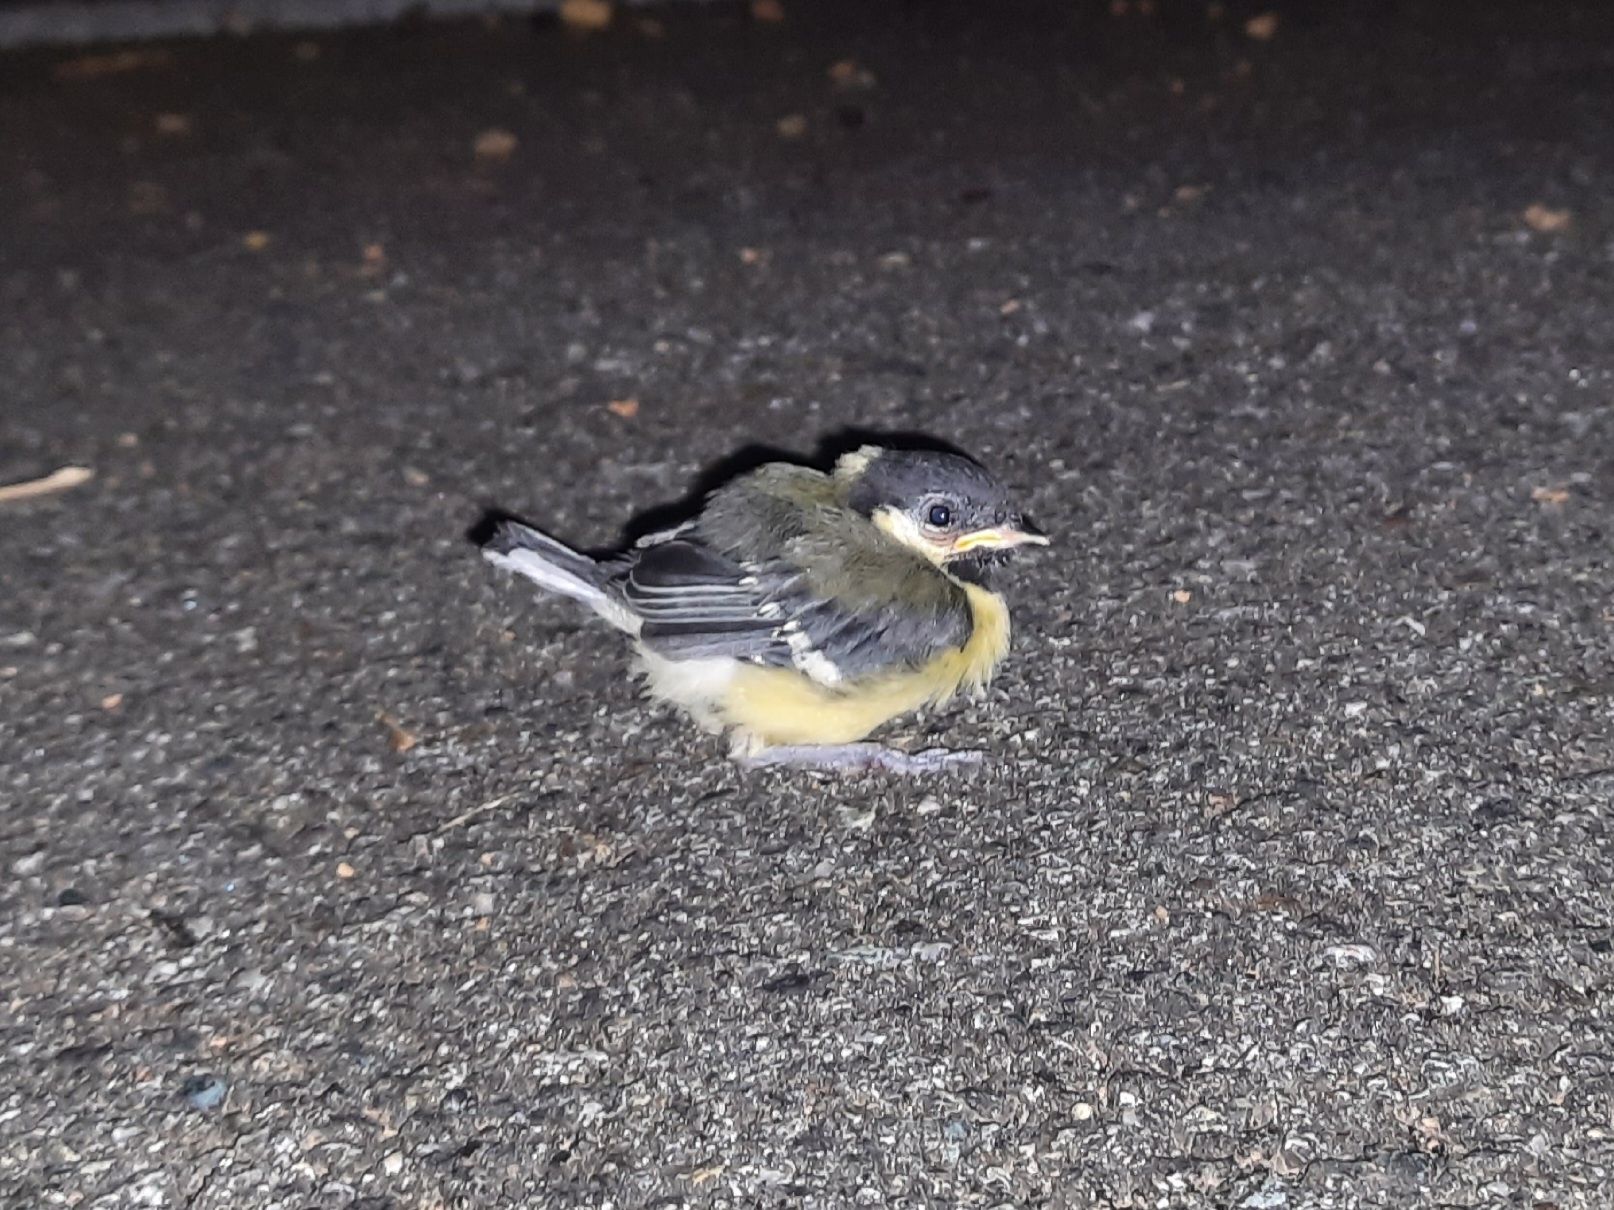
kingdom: Animalia
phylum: Chordata
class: Aves
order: Passeriformes
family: Paridae
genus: Parus
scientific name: Parus major
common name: Great tit
